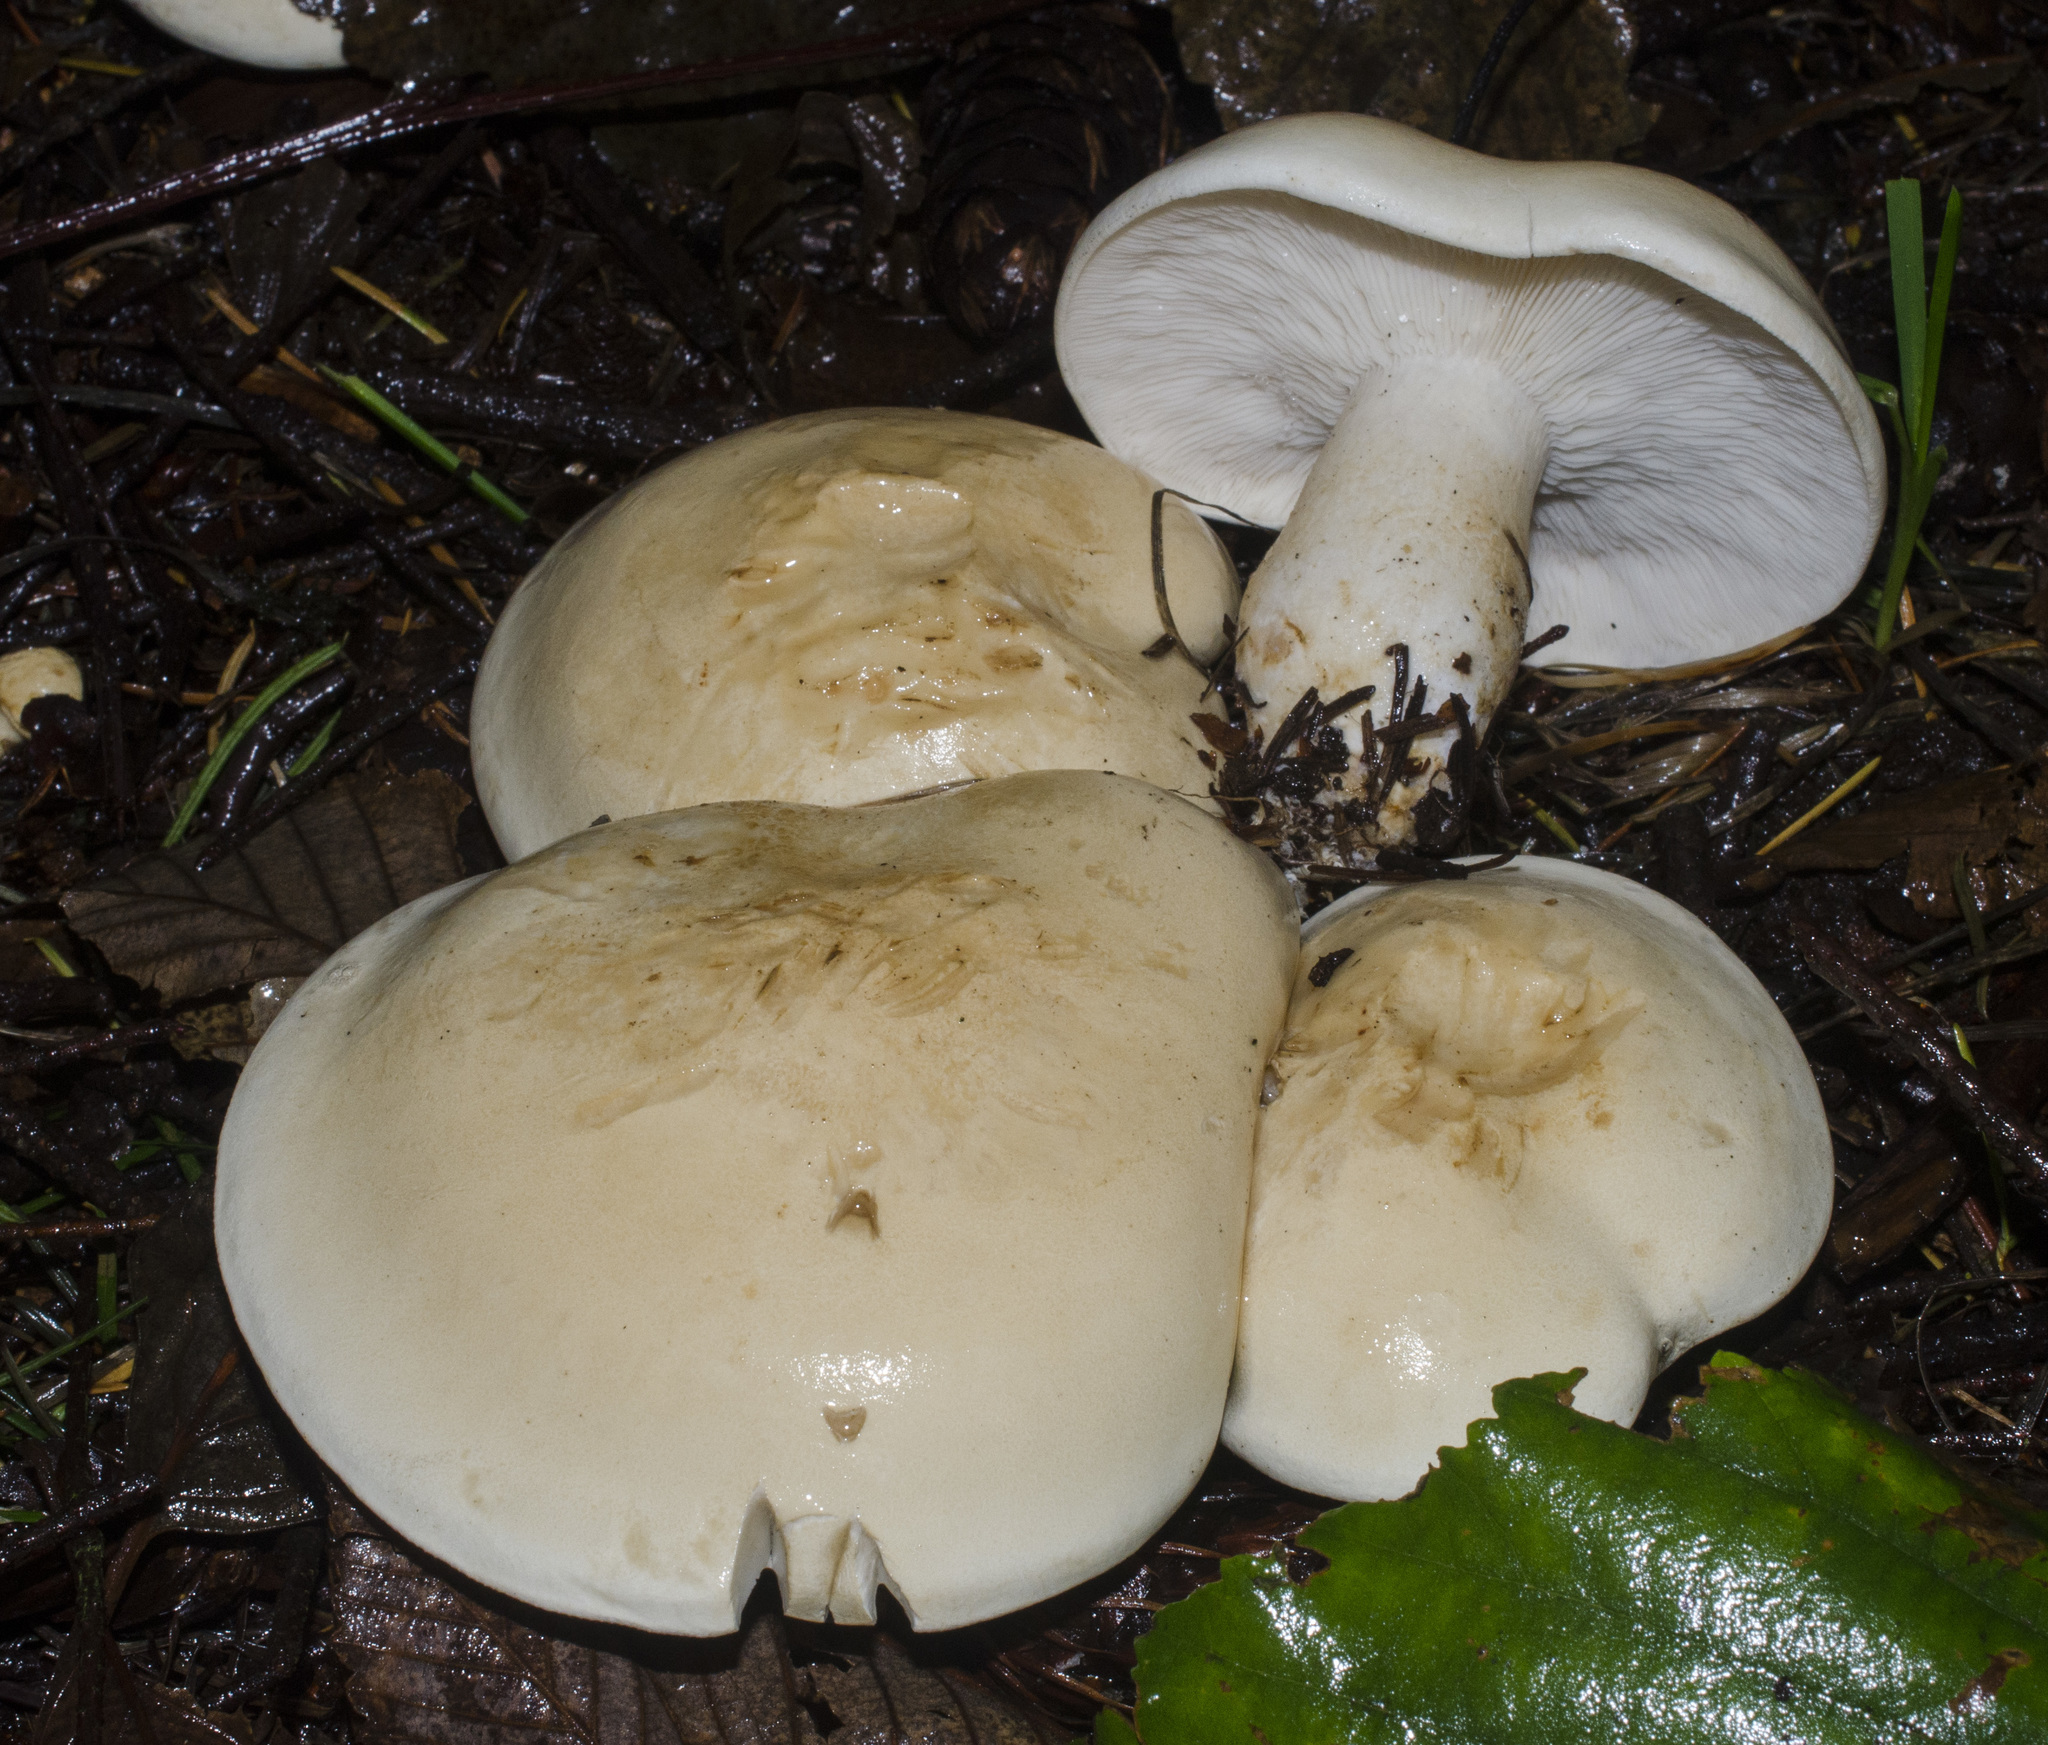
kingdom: Fungi
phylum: Basidiomycota
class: Agaricomycetes
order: Agaricales
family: Tricholomataceae
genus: Leucopaxillus
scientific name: Leucopaxillus albissimus
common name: Large white leucopax
